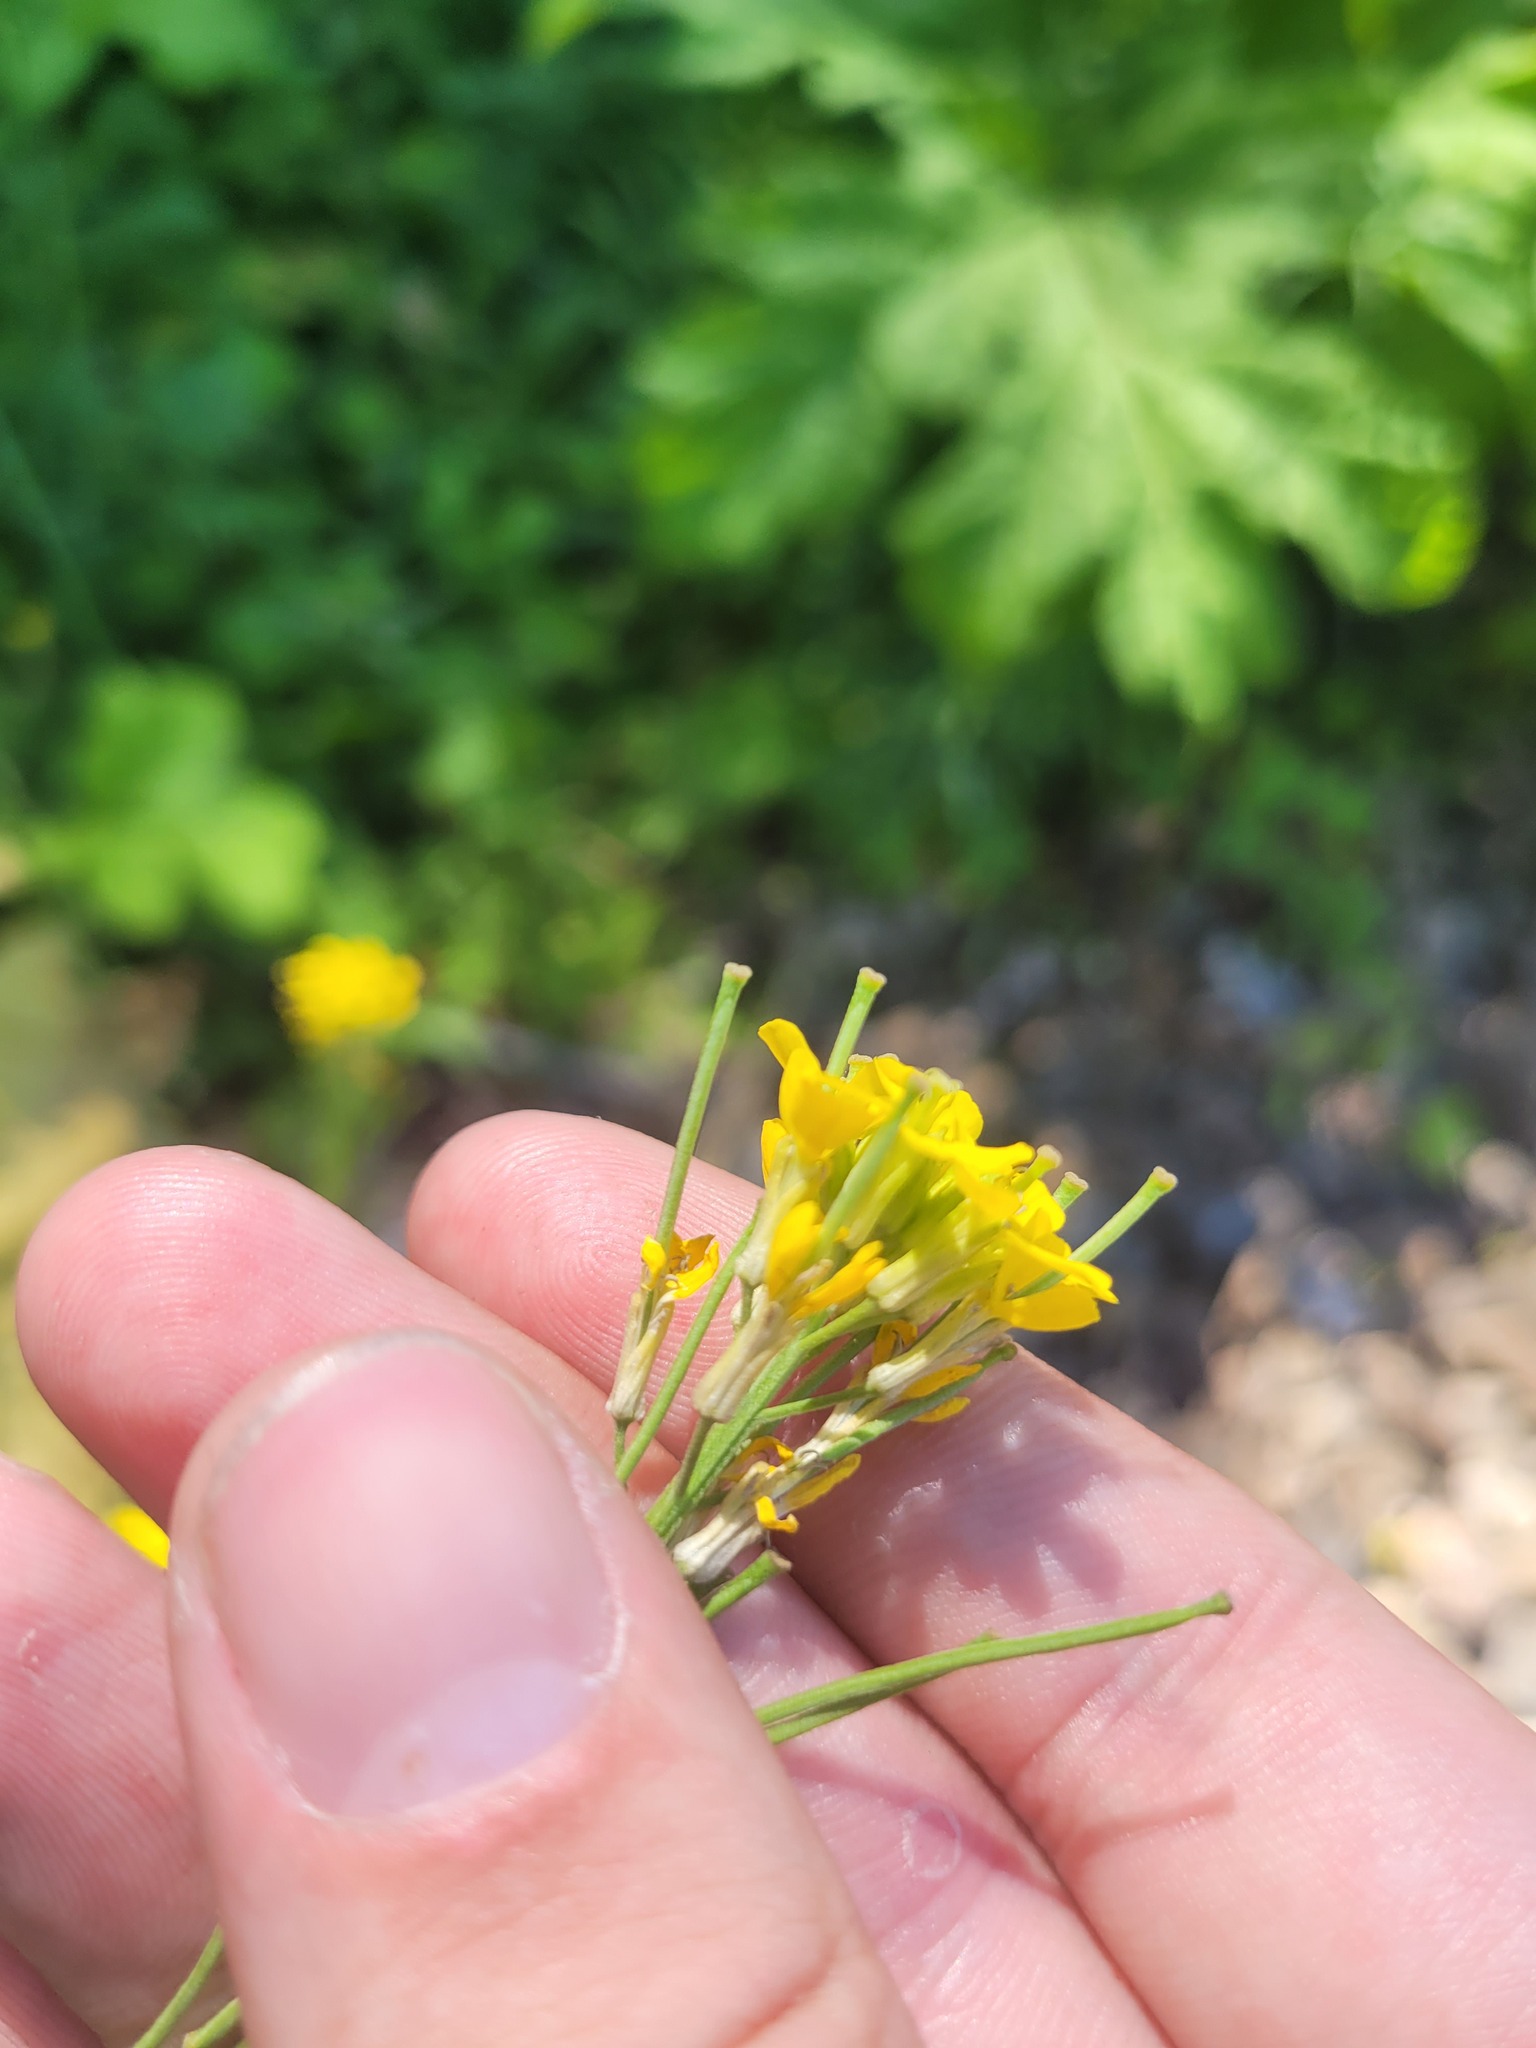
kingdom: Plantae
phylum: Tracheophyta
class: Magnoliopsida
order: Brassicales
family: Brassicaceae
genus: Erysimum
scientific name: Erysimum hieraciifolium
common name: European wallflower
